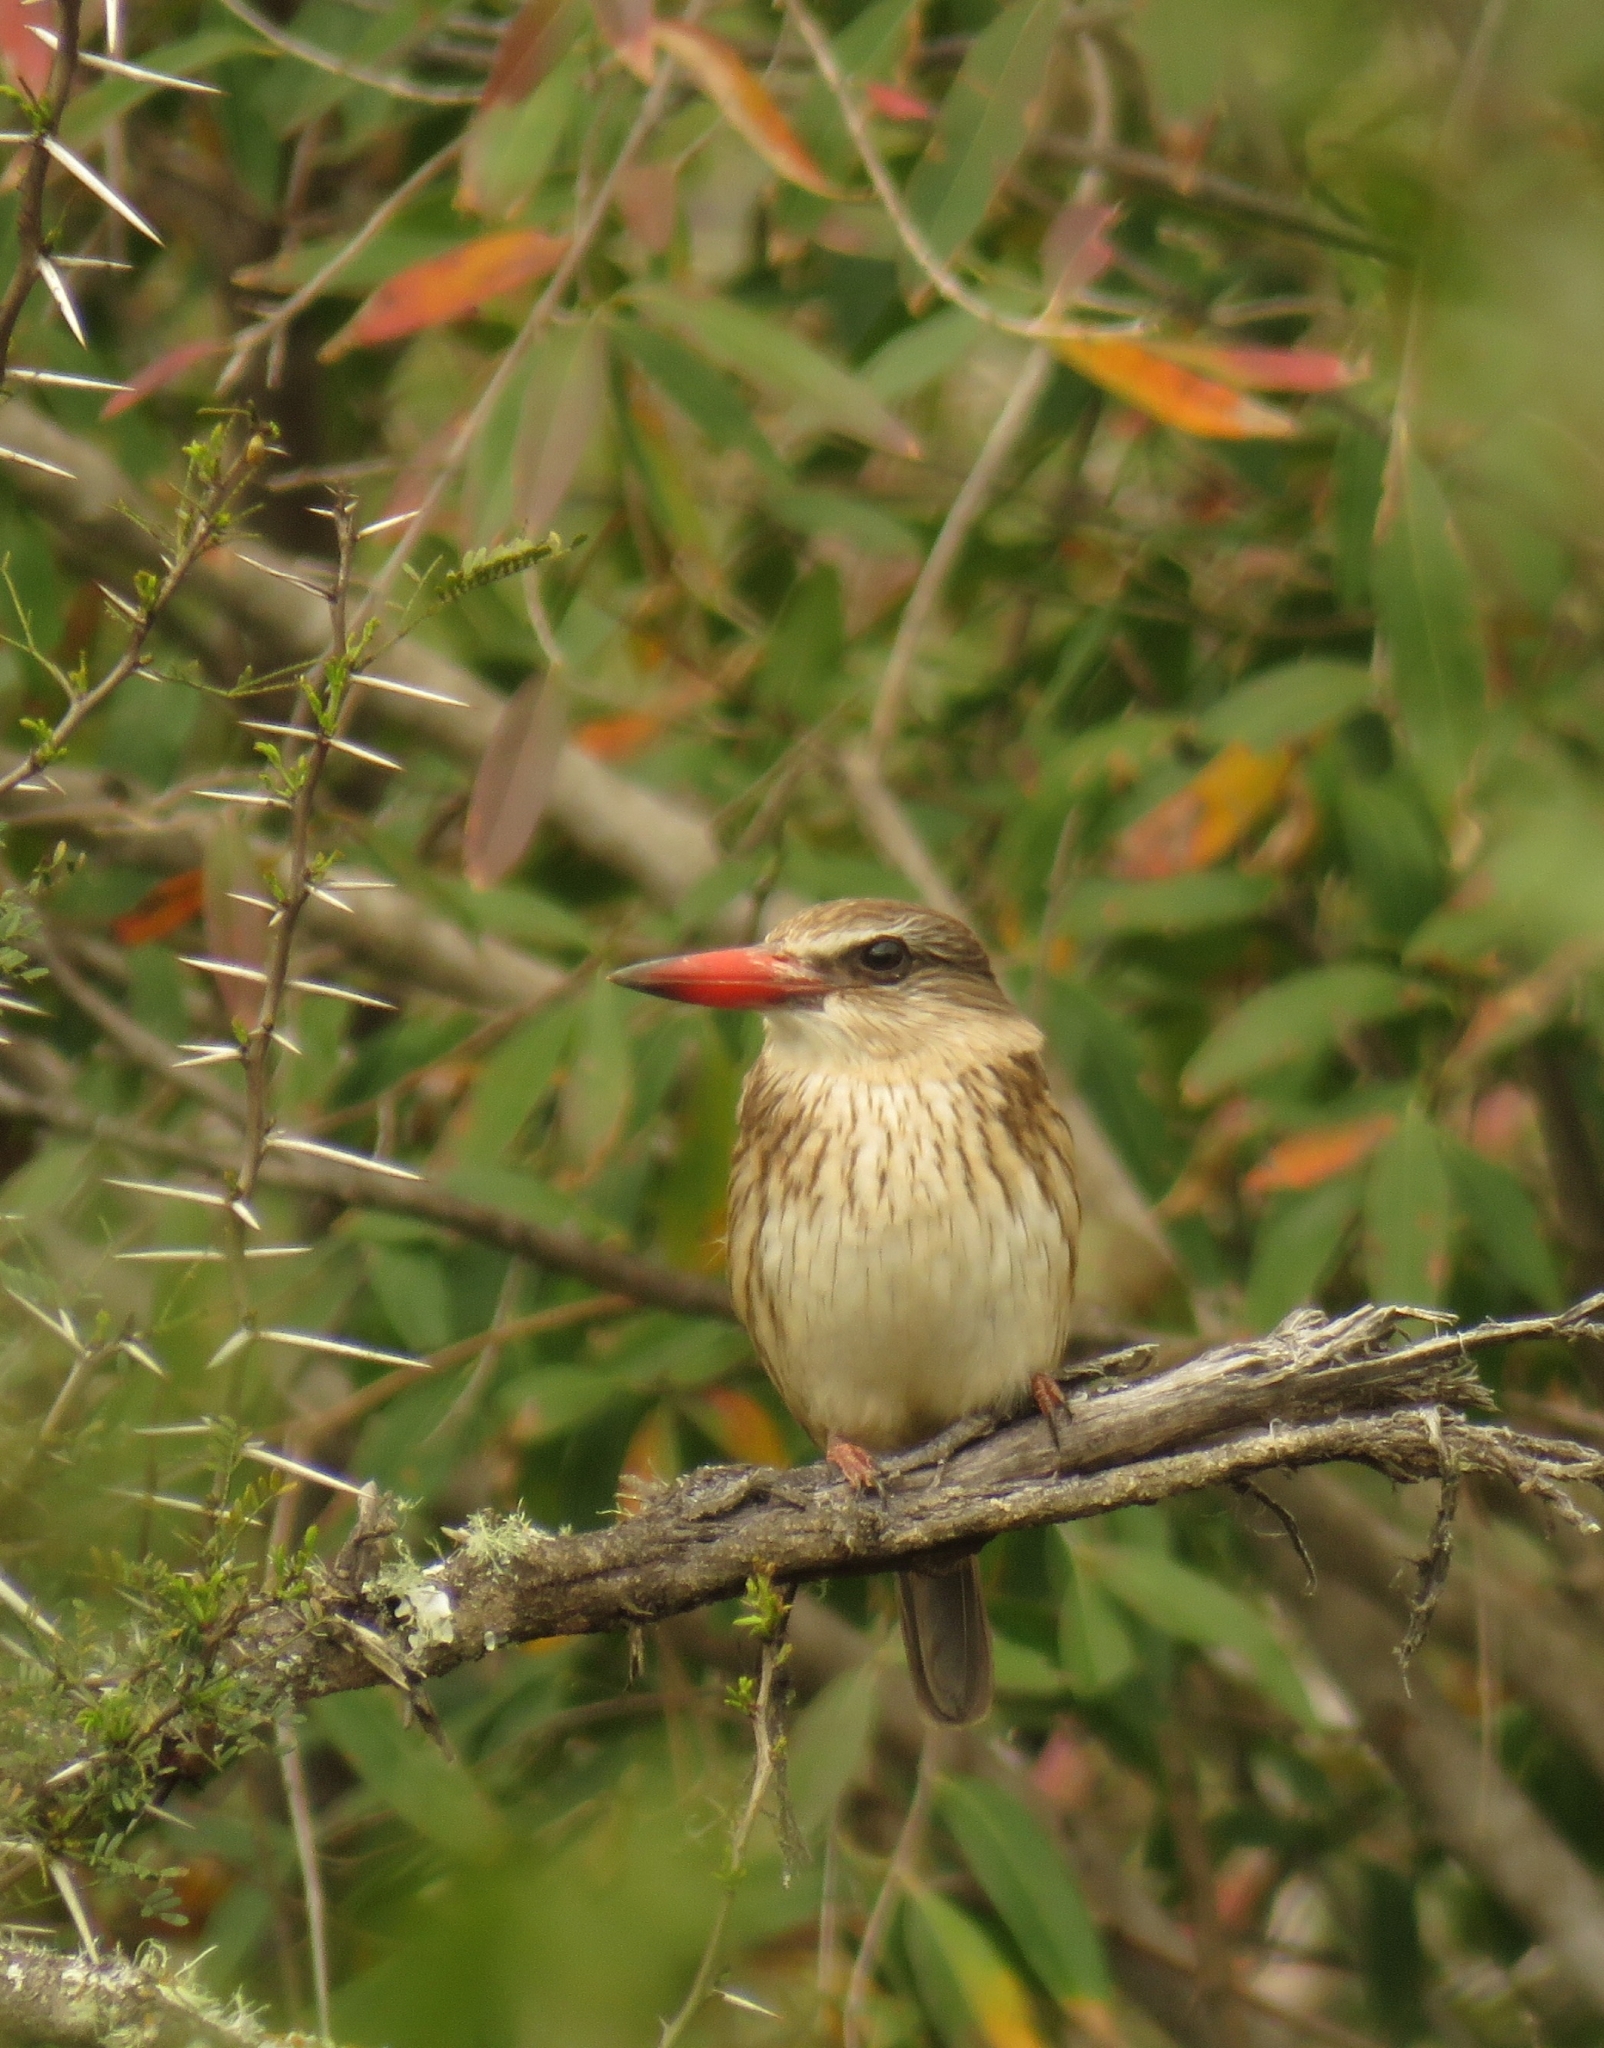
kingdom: Animalia
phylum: Chordata
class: Aves
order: Coraciiformes
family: Alcedinidae
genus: Halcyon
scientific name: Halcyon albiventris
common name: Brown-hooded kingfisher
